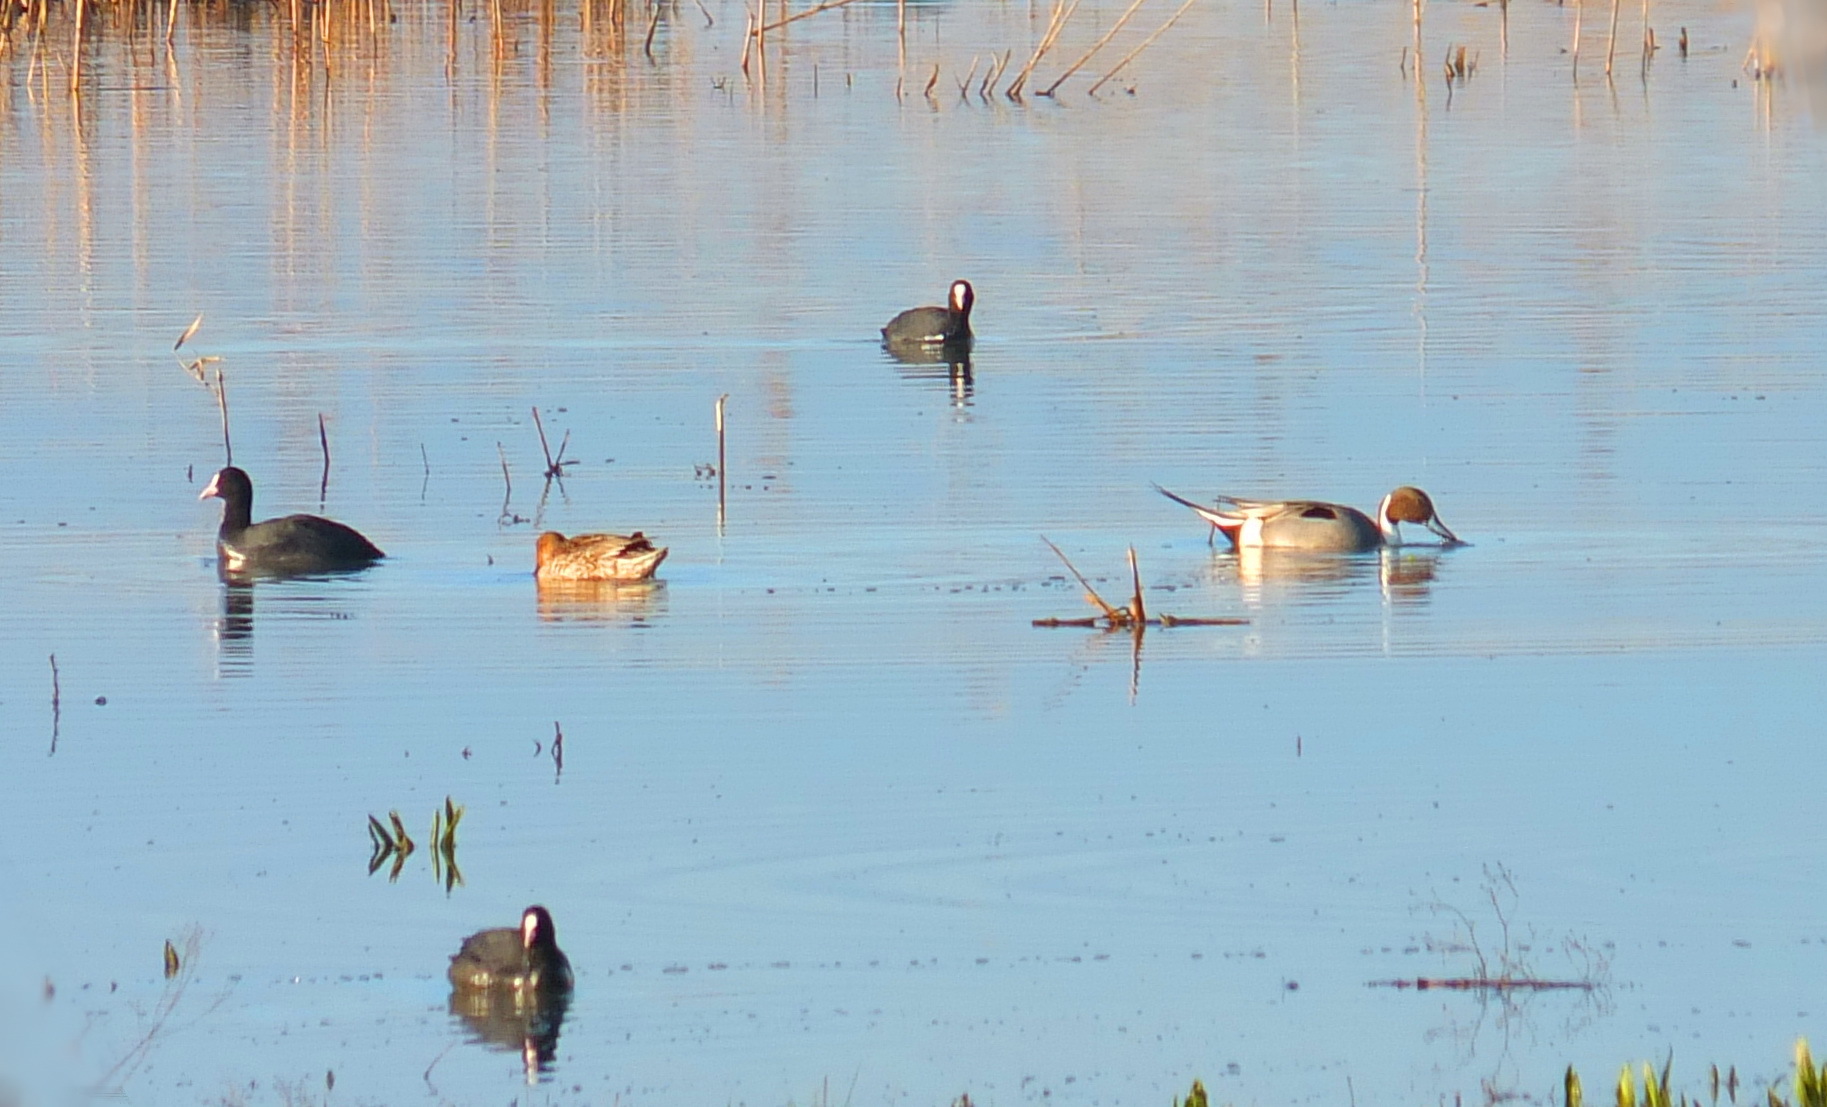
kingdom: Animalia
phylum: Chordata
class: Aves
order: Anseriformes
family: Anatidae
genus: Anas
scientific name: Anas acuta
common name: Northern pintail
